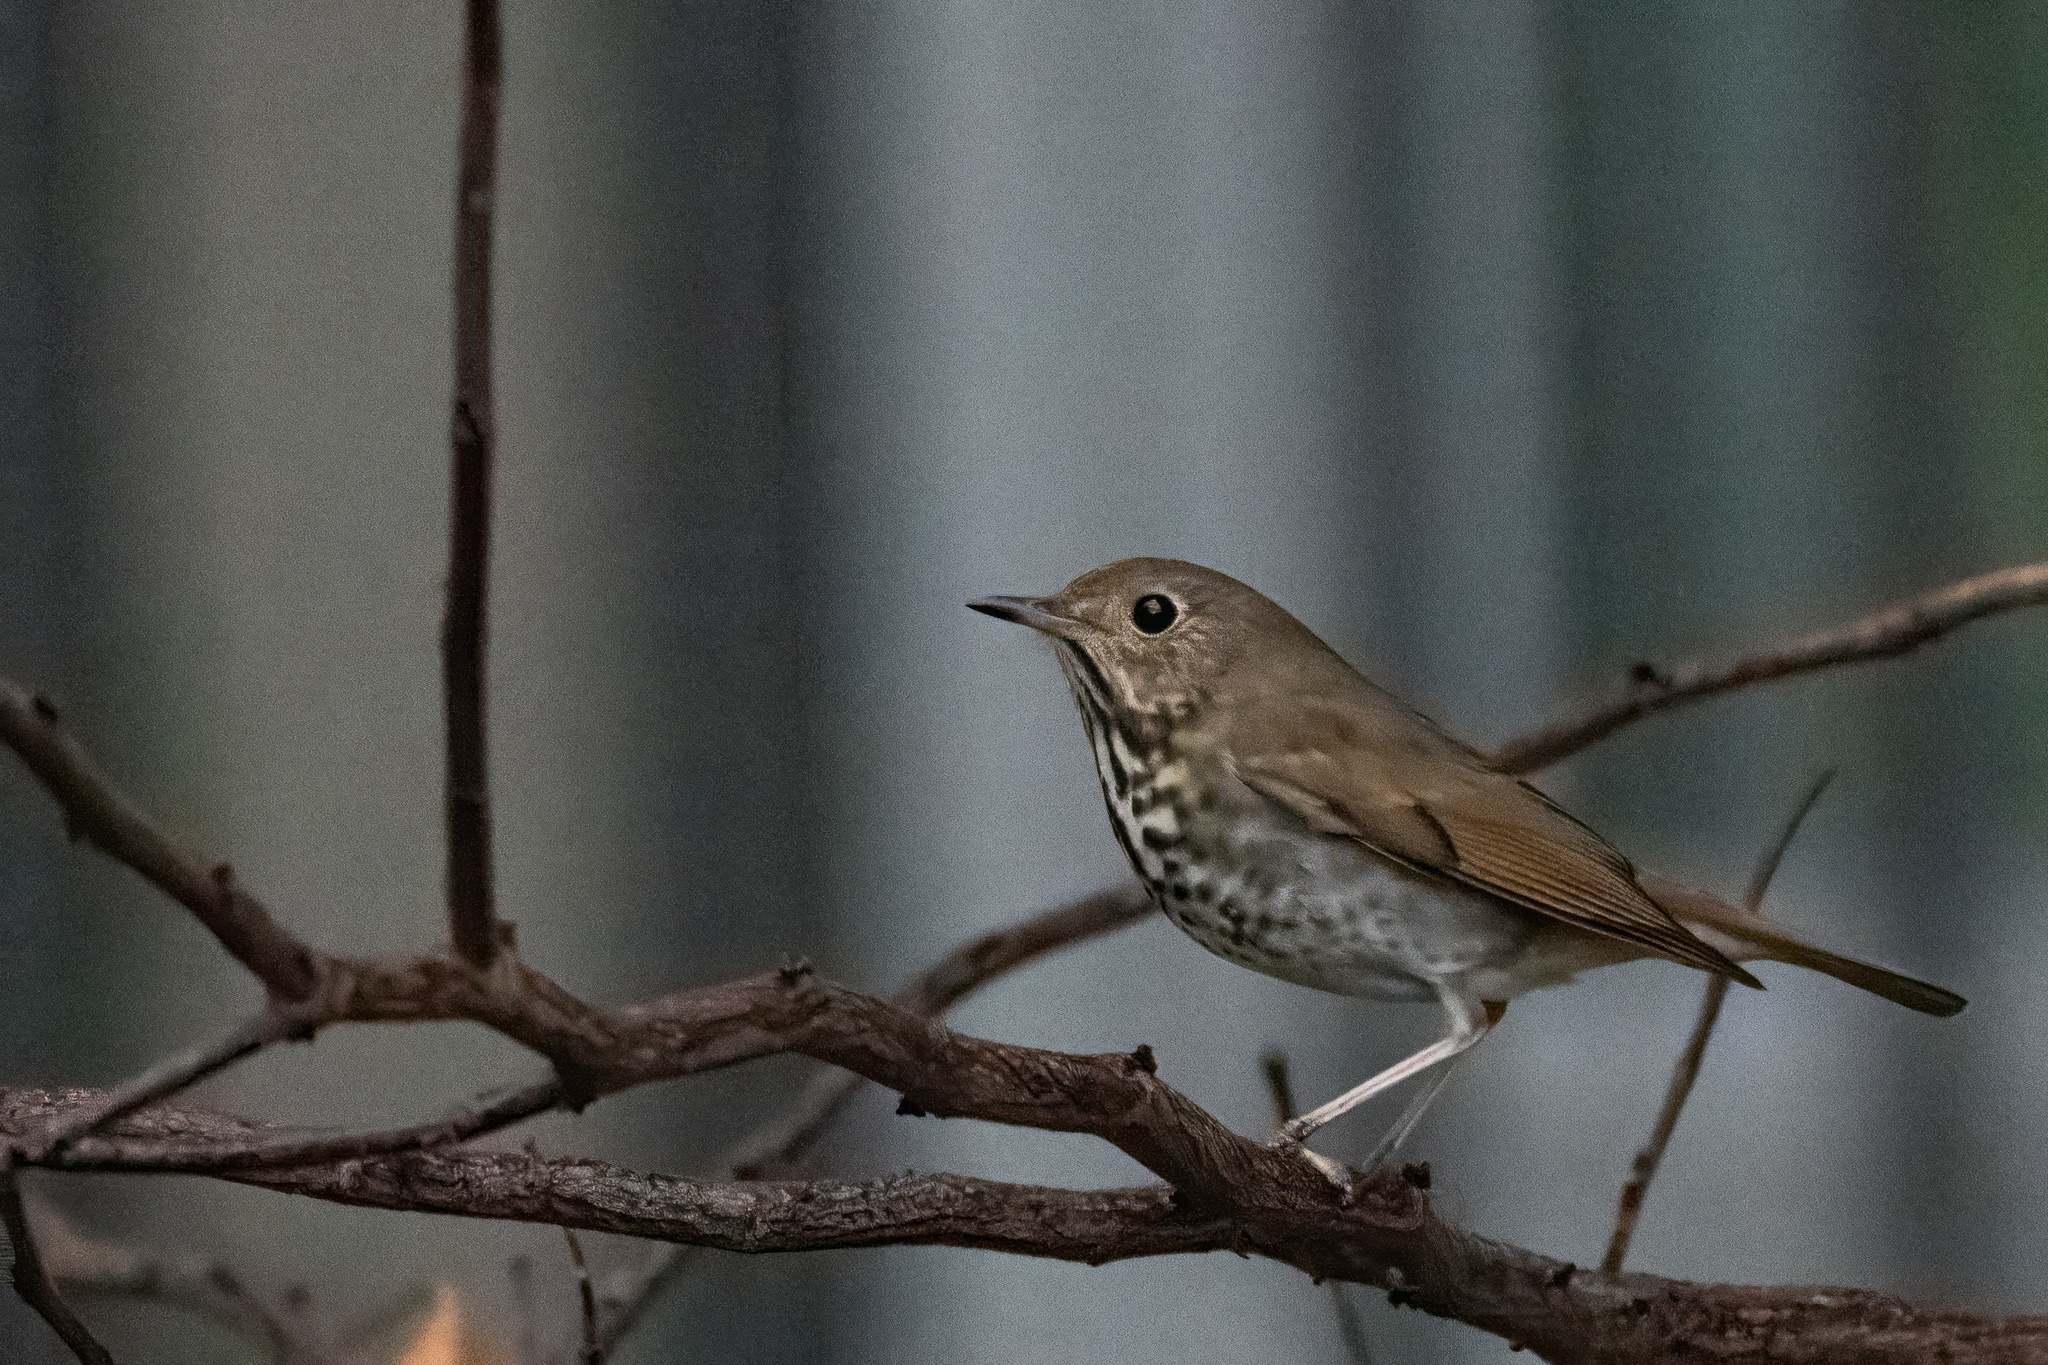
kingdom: Animalia
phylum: Chordata
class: Aves
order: Passeriformes
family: Turdidae
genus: Catharus
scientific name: Catharus guttatus
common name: Hermit thrush
